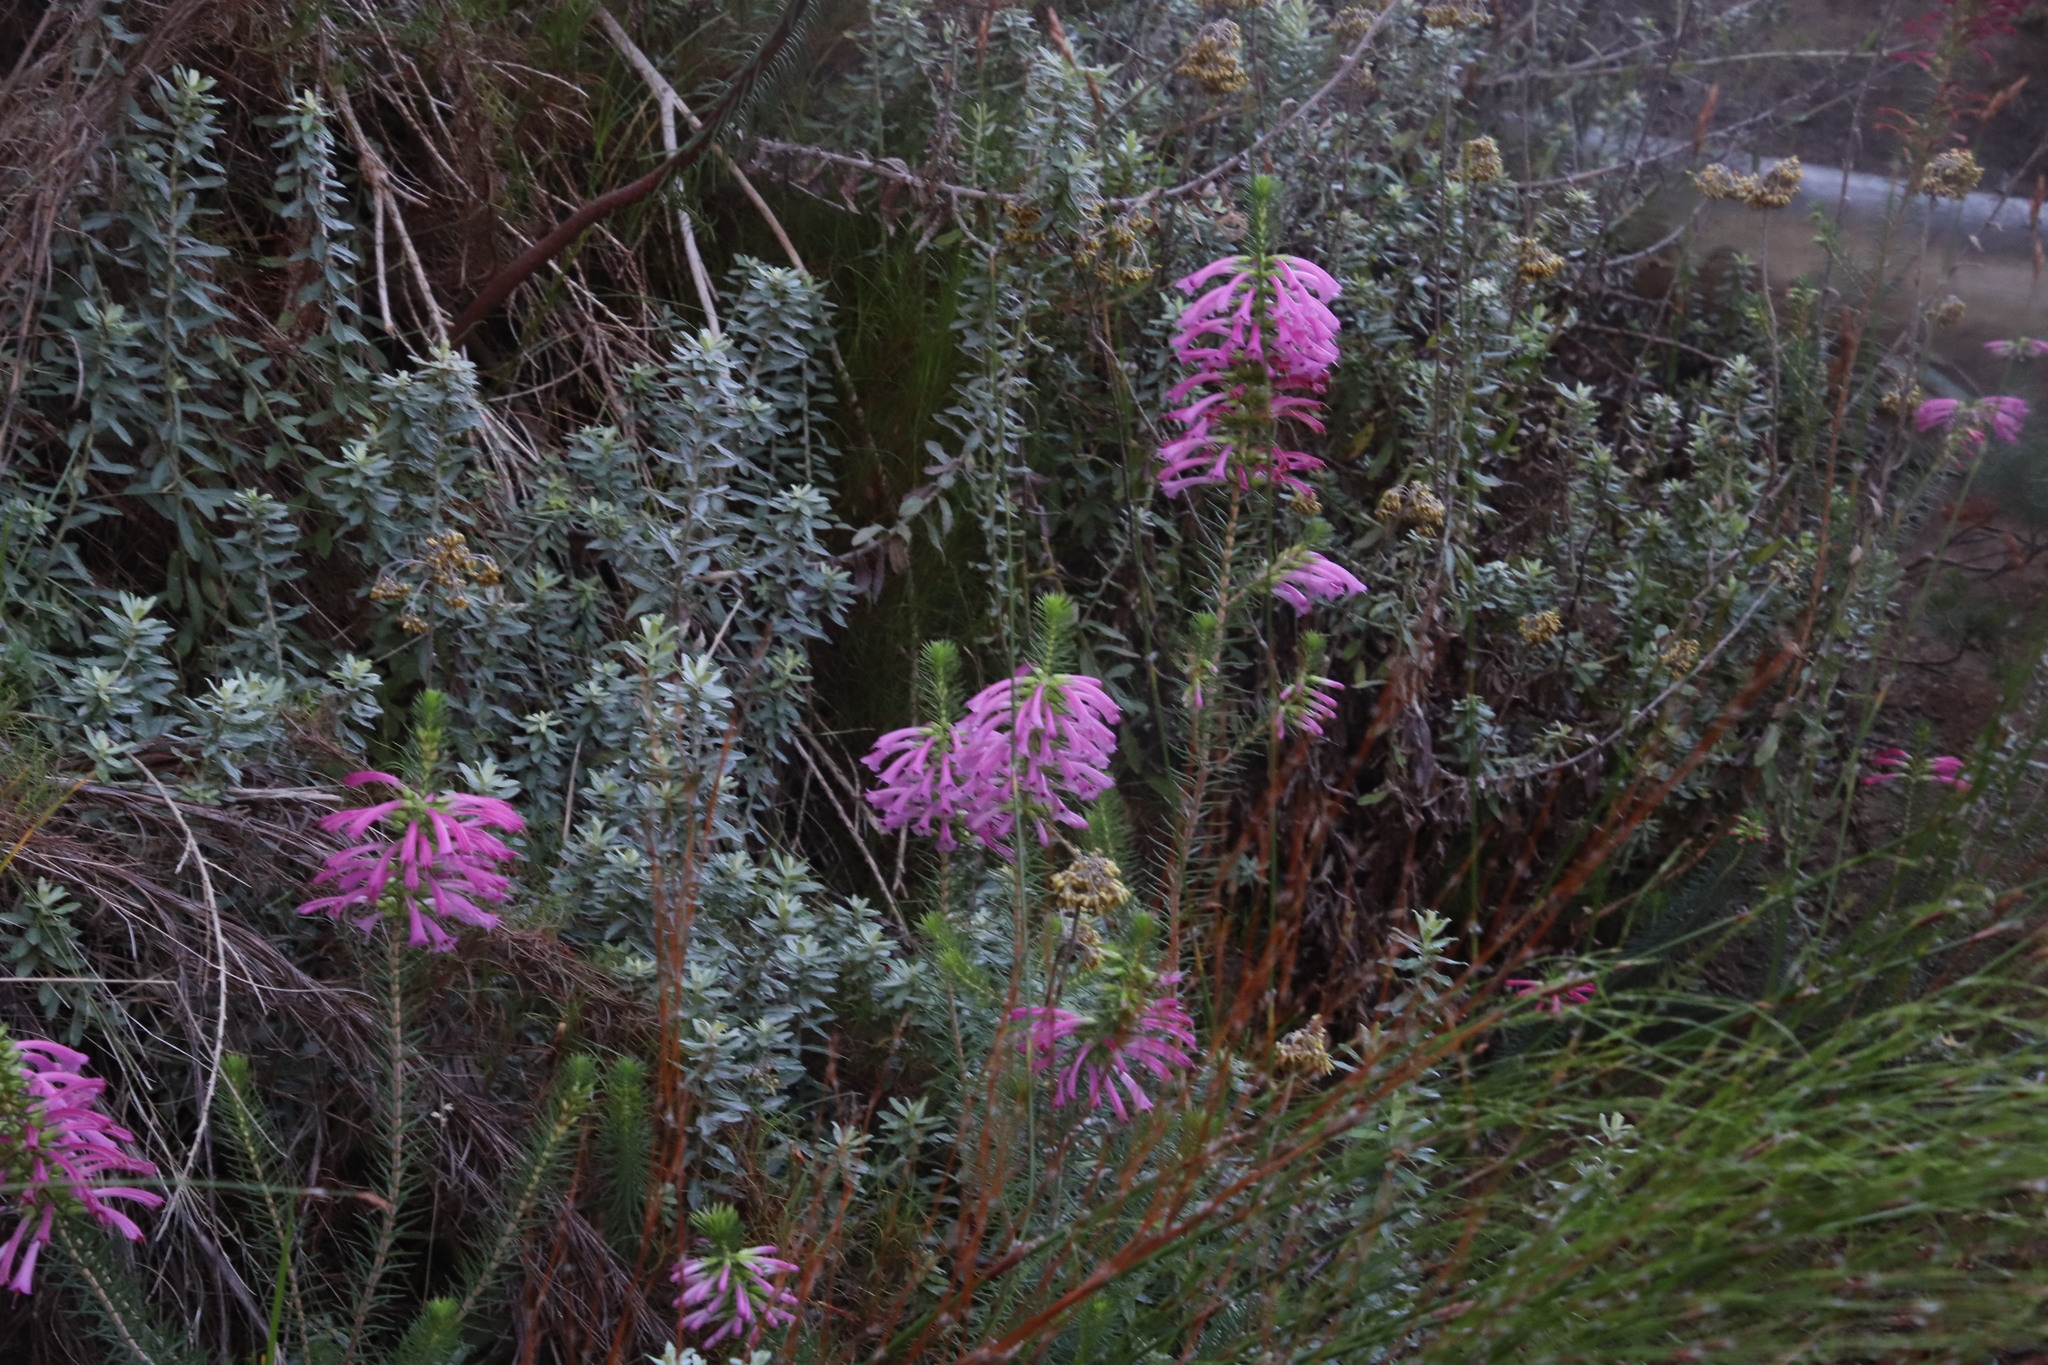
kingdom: Plantae
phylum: Tracheophyta
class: Magnoliopsida
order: Ericales
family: Ericaceae
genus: Erica
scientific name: Erica abietina
